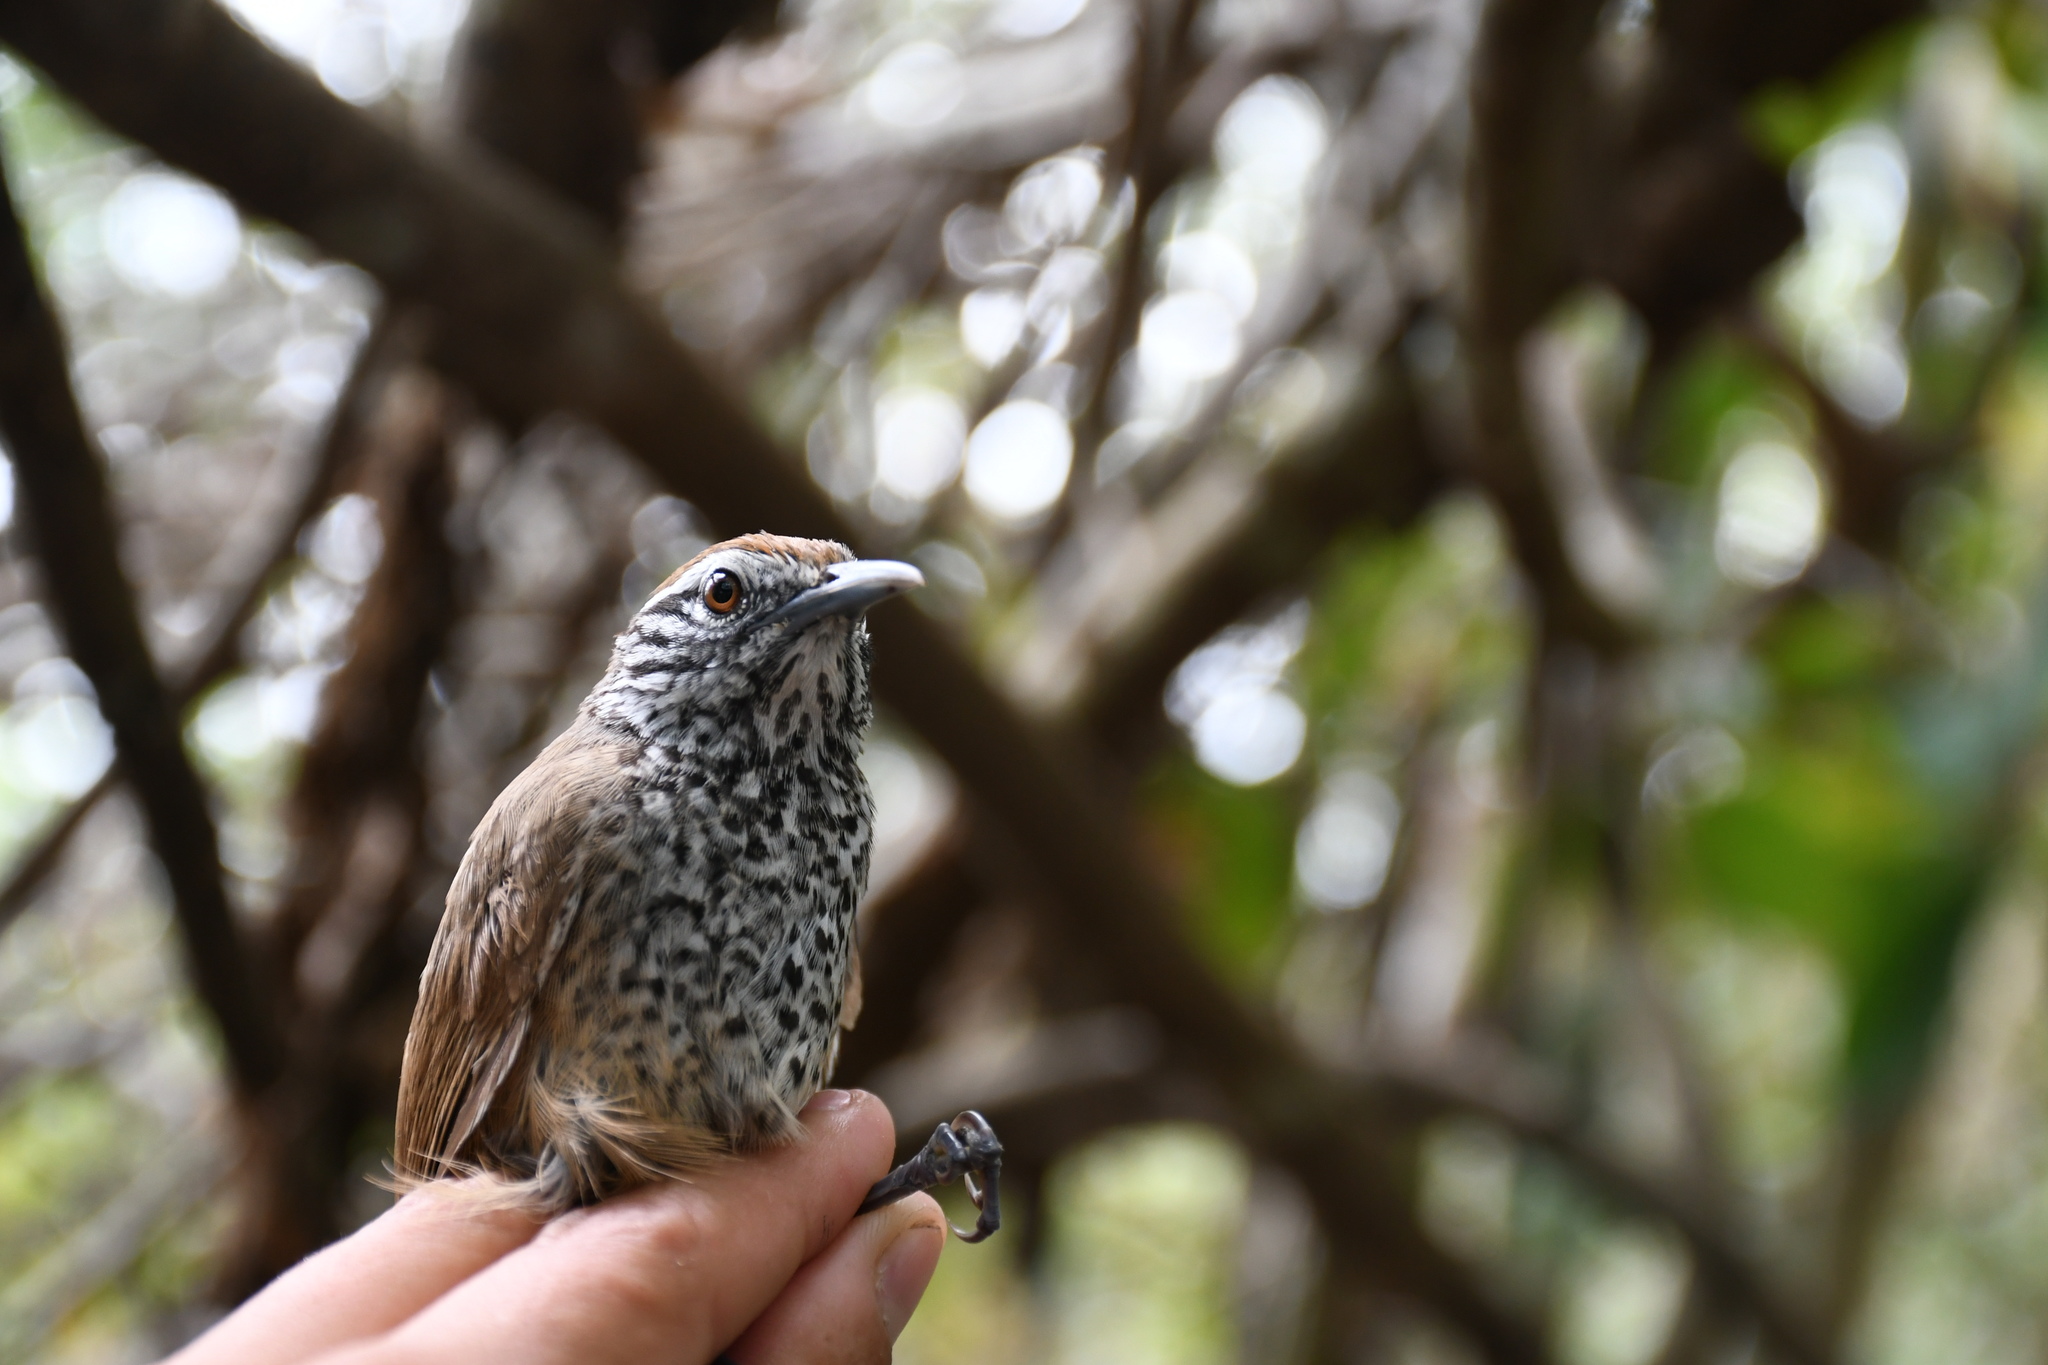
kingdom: Animalia
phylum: Chordata
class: Aves
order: Passeriformes
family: Troglodytidae
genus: Pheugopedius
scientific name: Pheugopedius maculipectus
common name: Spot-breasted wren
